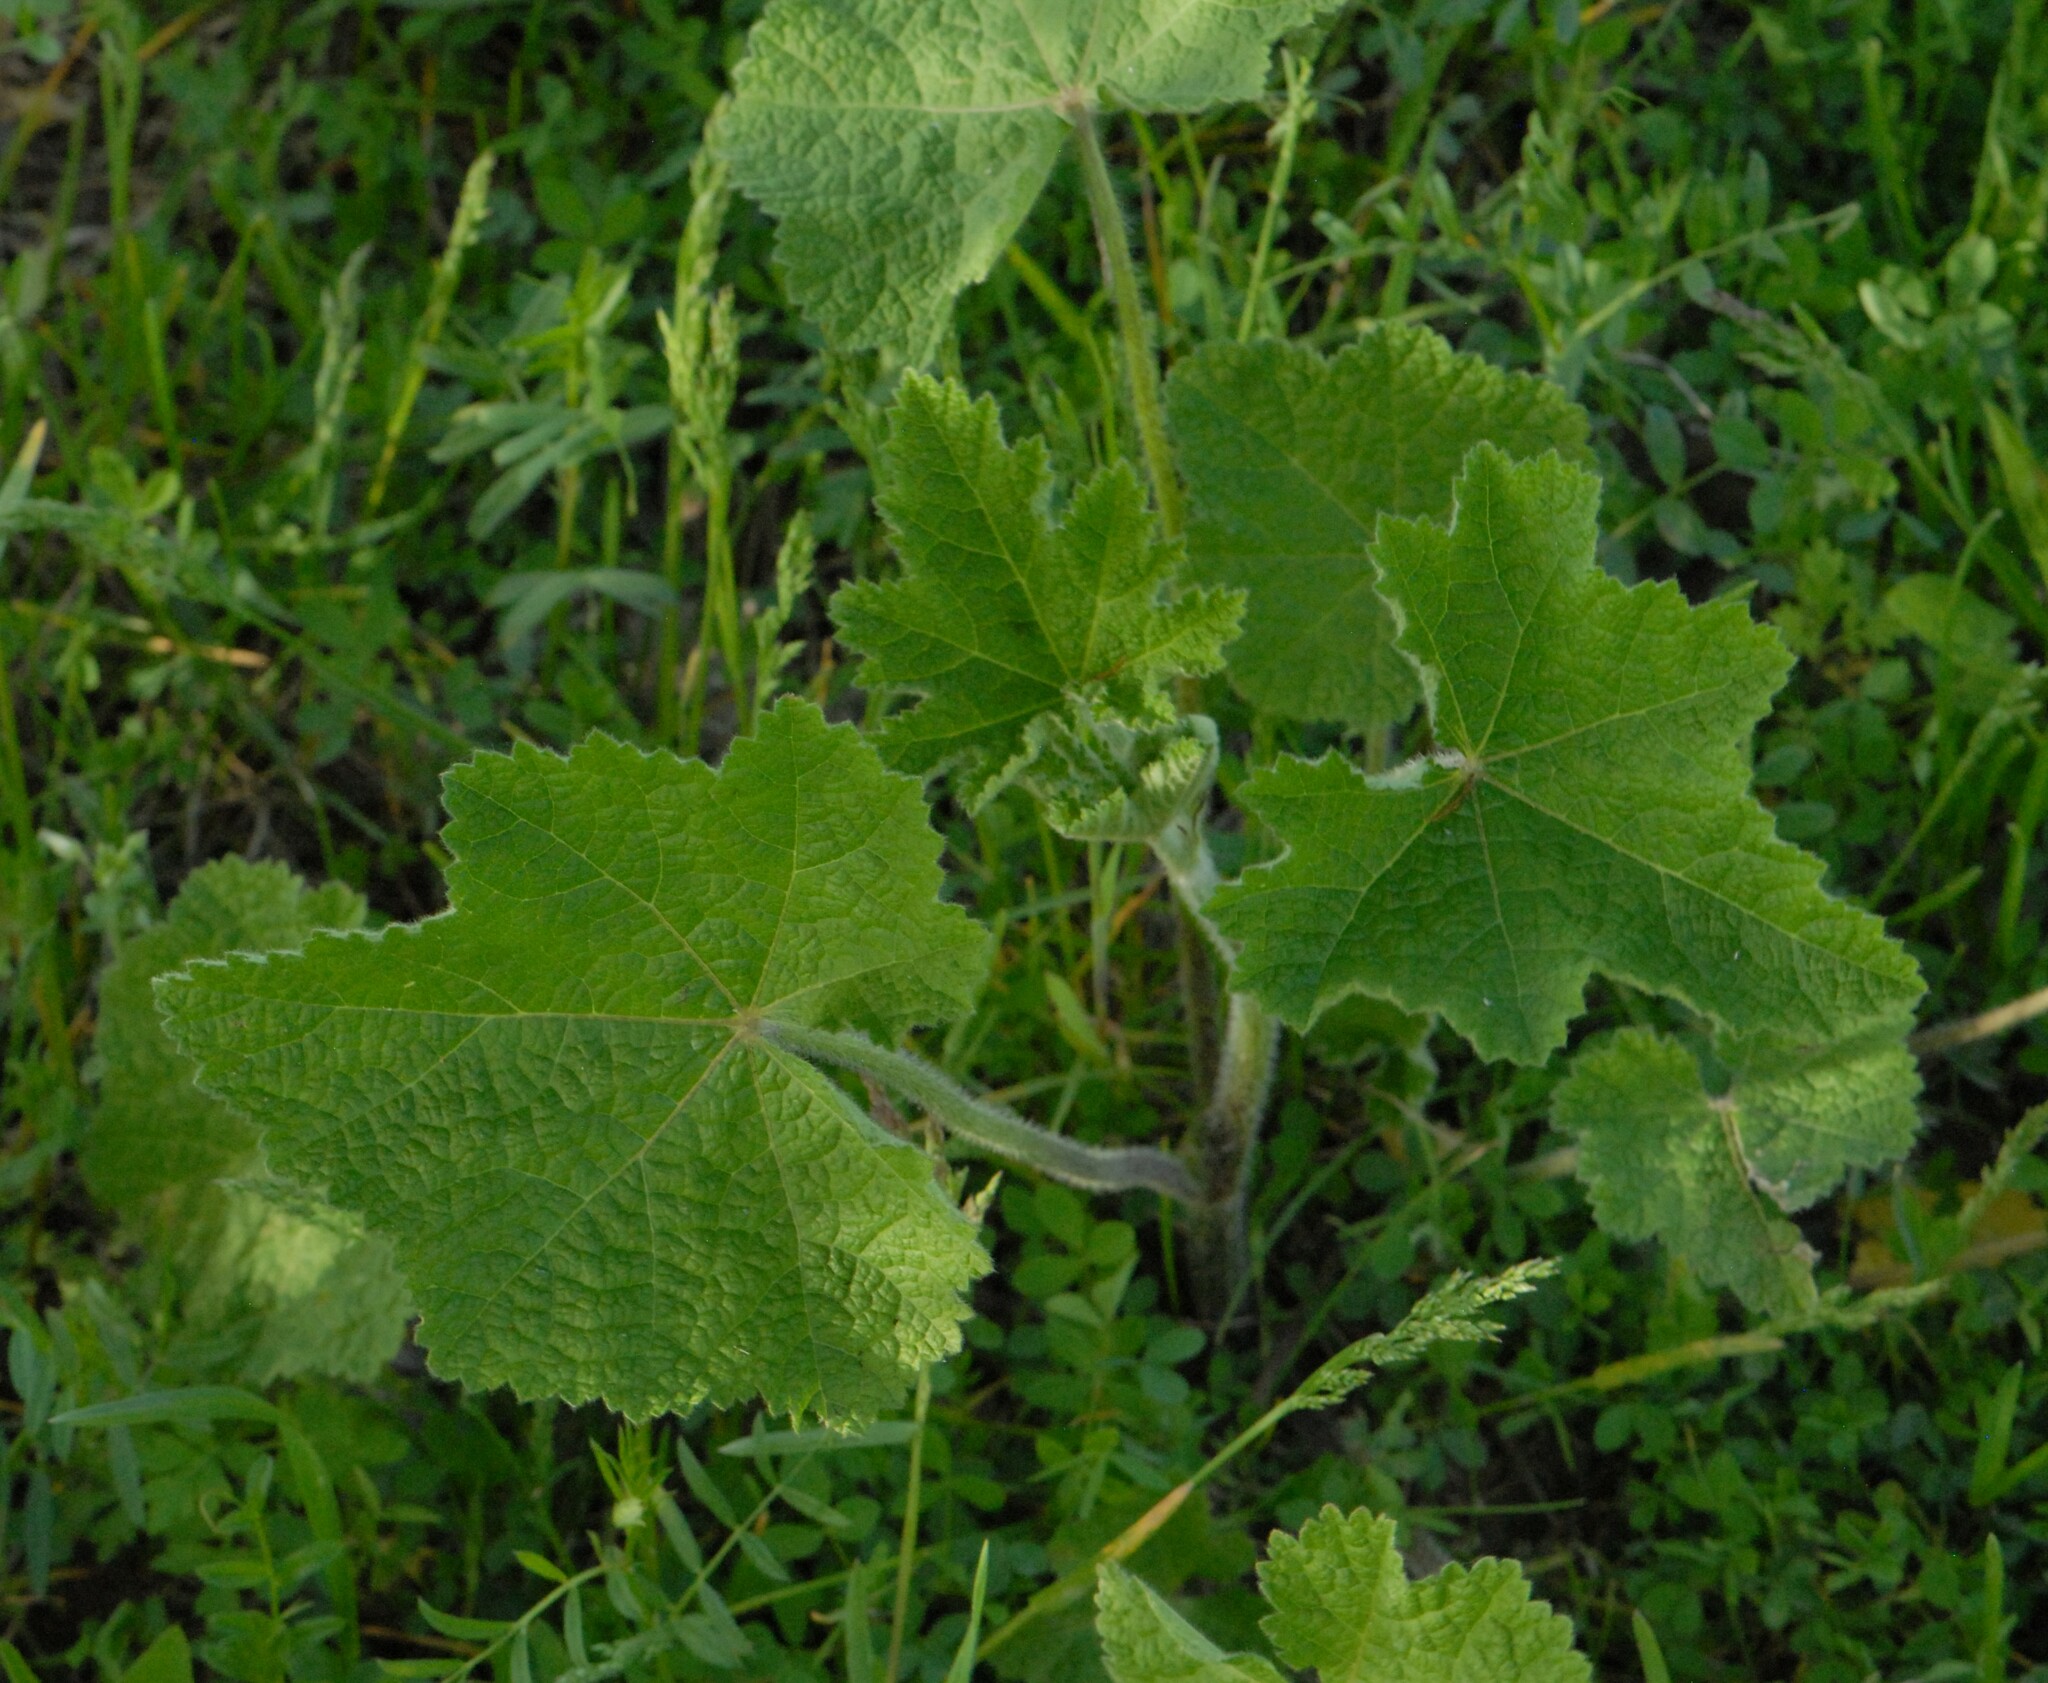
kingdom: Plantae
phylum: Tracheophyta
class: Magnoliopsida
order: Malvales
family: Malvaceae
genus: Alcea
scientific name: Alcea rugosa
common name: Russian hollyhock
